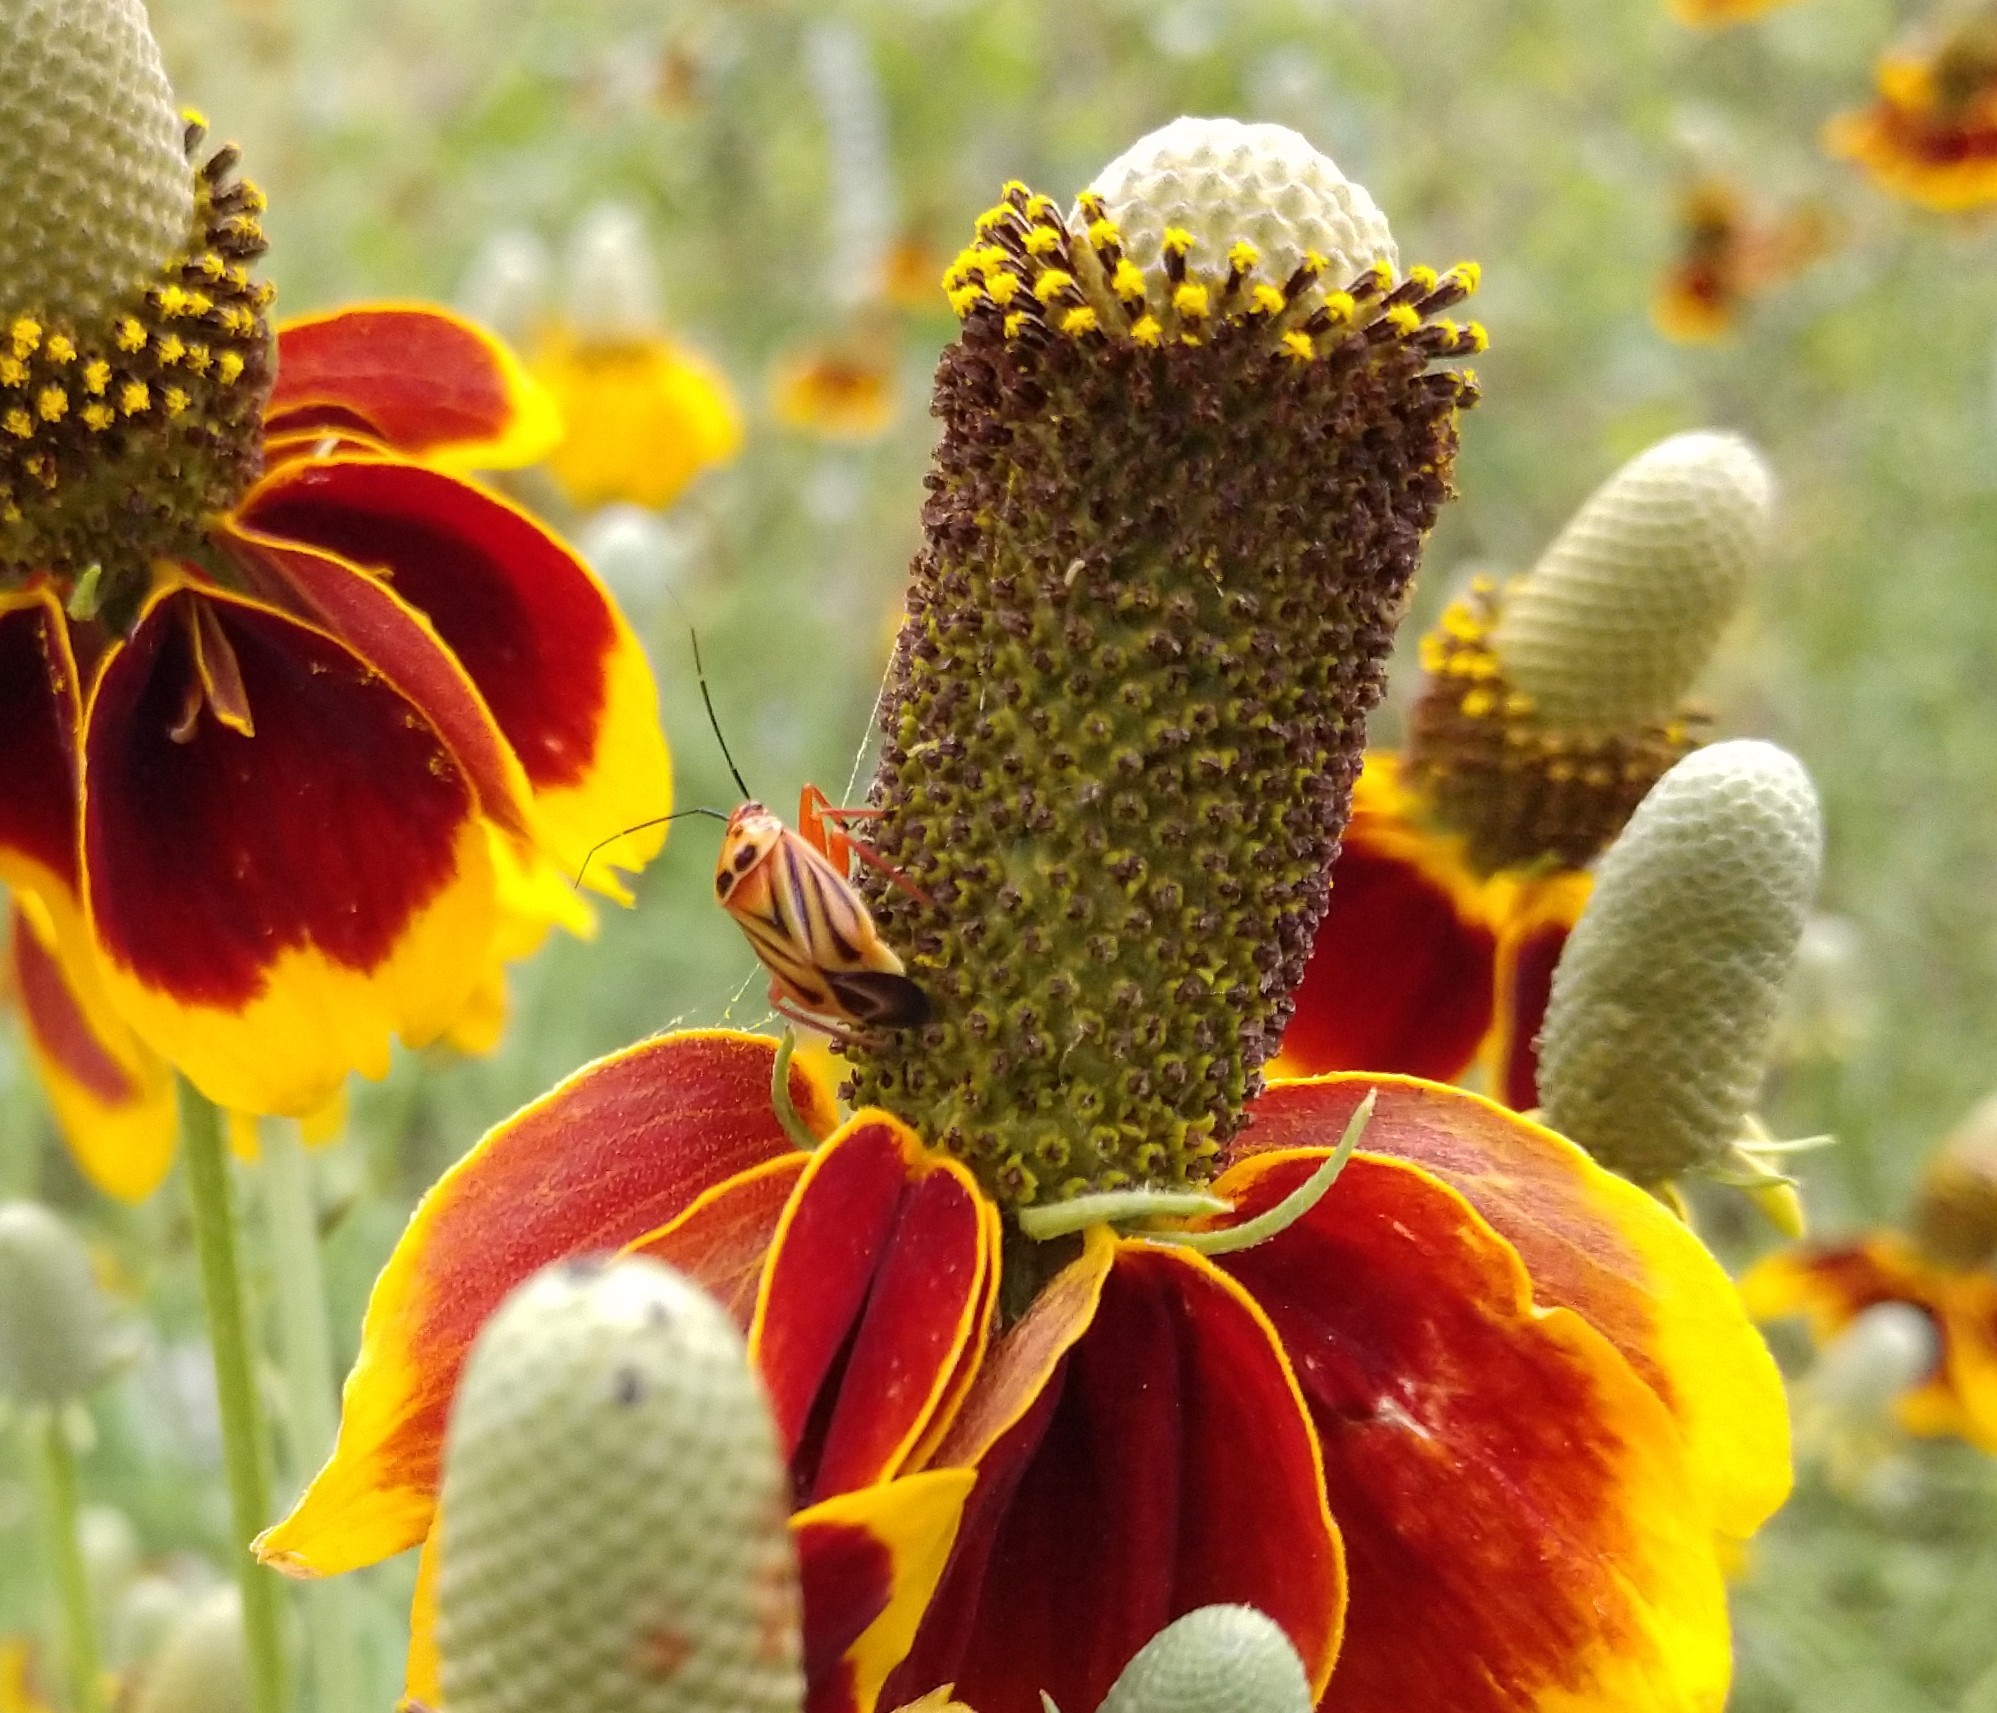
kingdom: Animalia
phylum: Arthropoda
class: Insecta
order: Hemiptera
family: Miridae
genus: Calocoris
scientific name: Calocoris barberi
